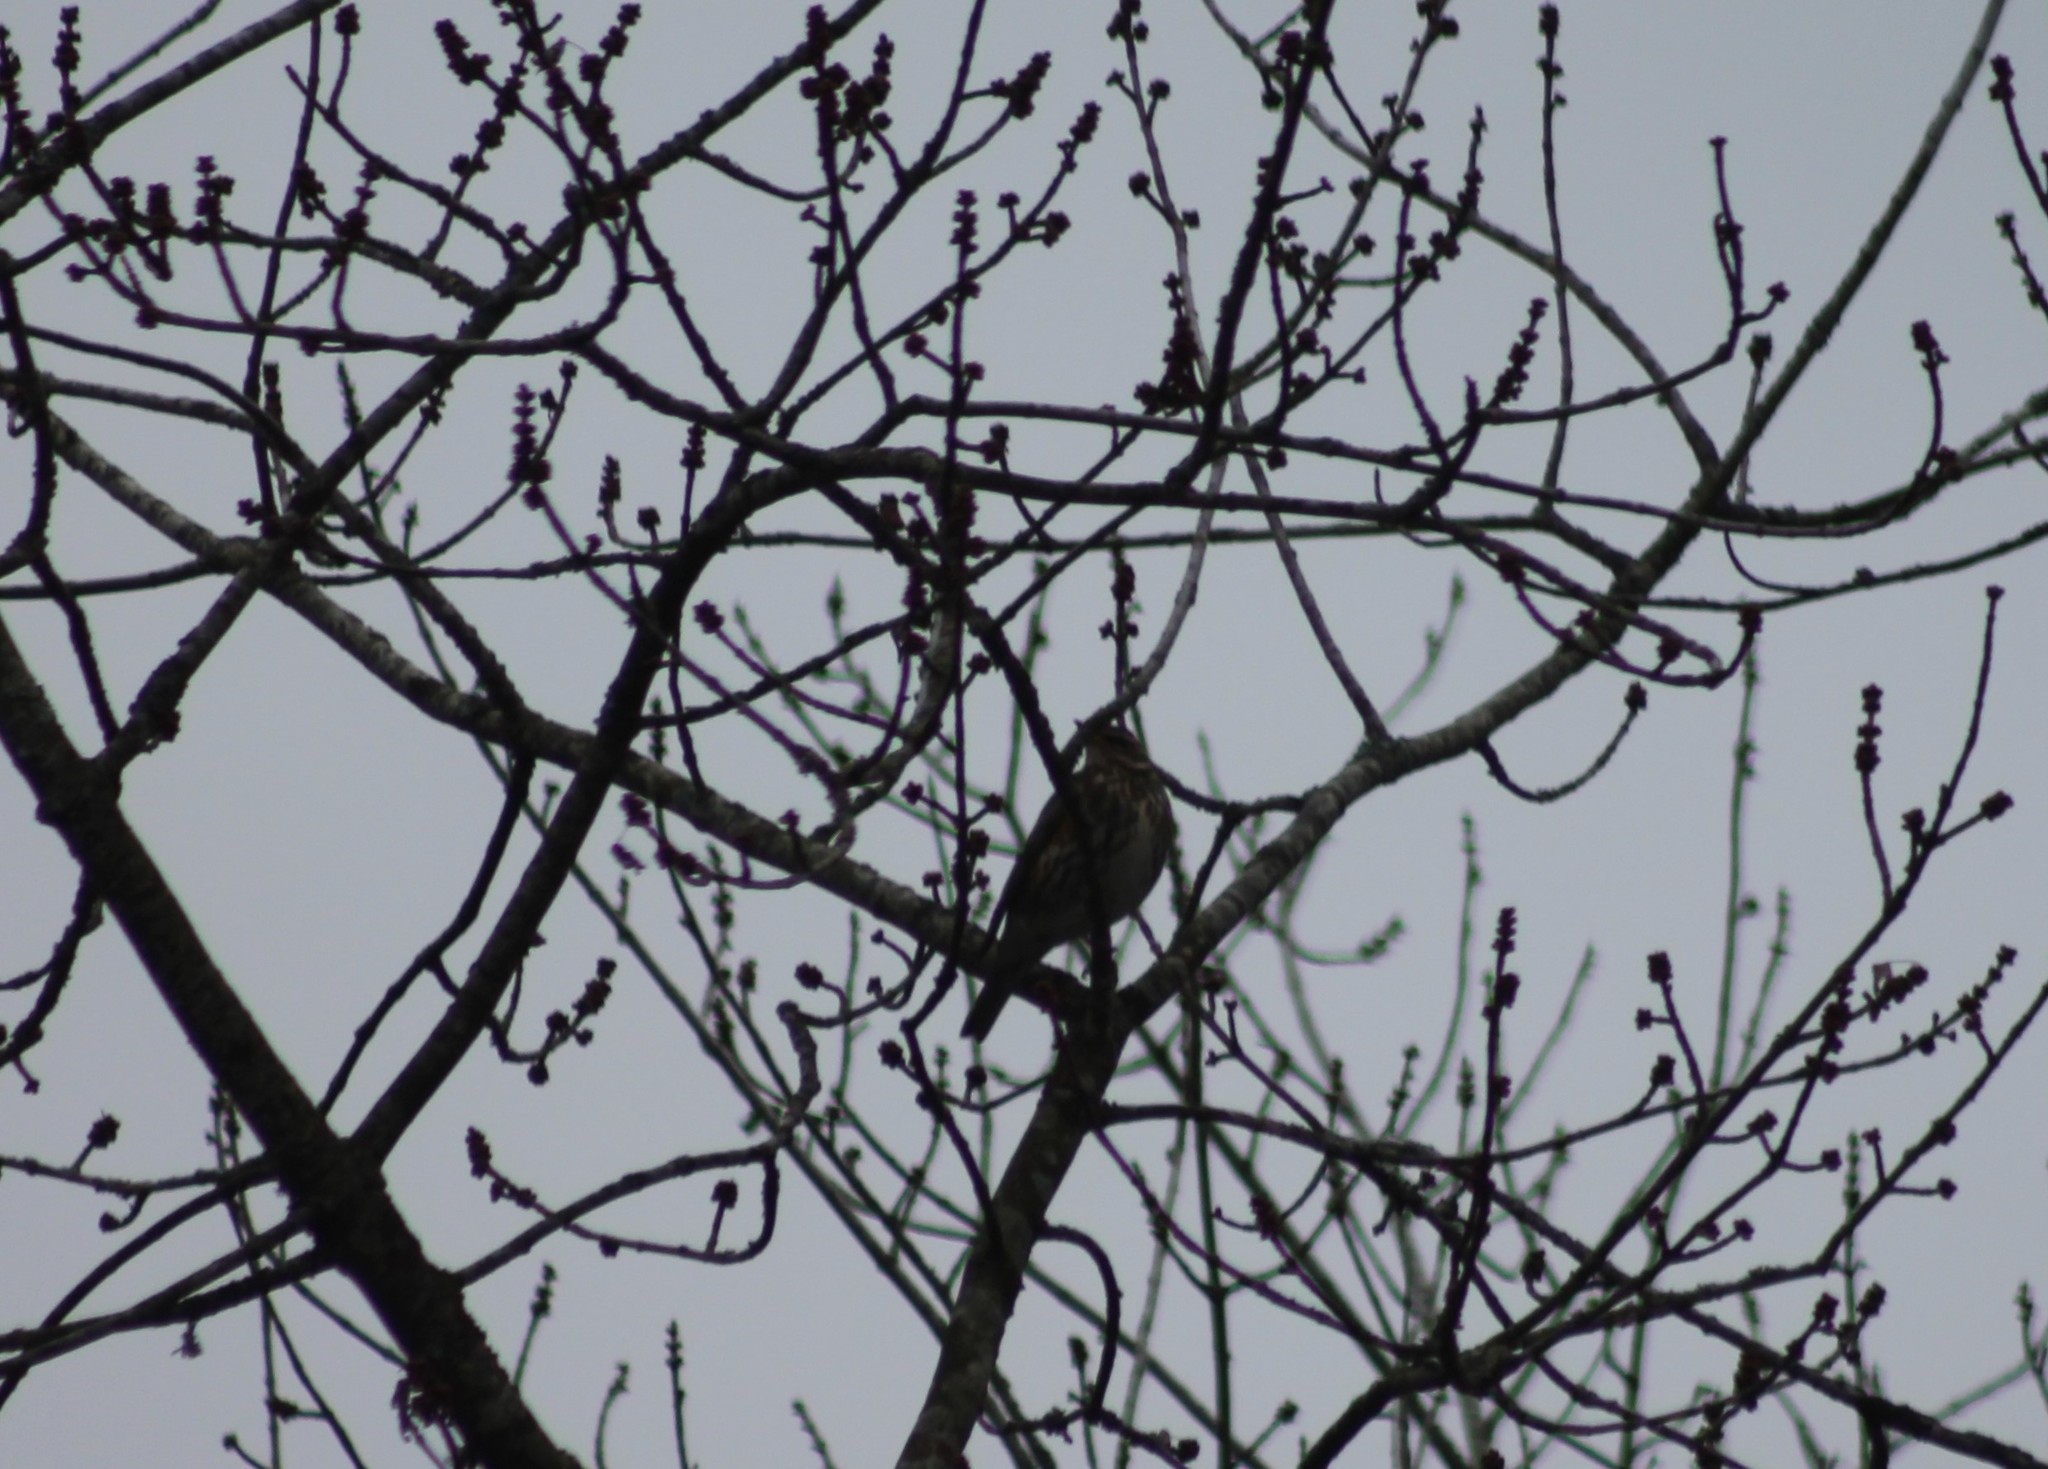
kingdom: Animalia
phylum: Chordata
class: Aves
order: Passeriformes
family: Turdidae
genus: Turdus
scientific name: Turdus iliacus
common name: Redwing
